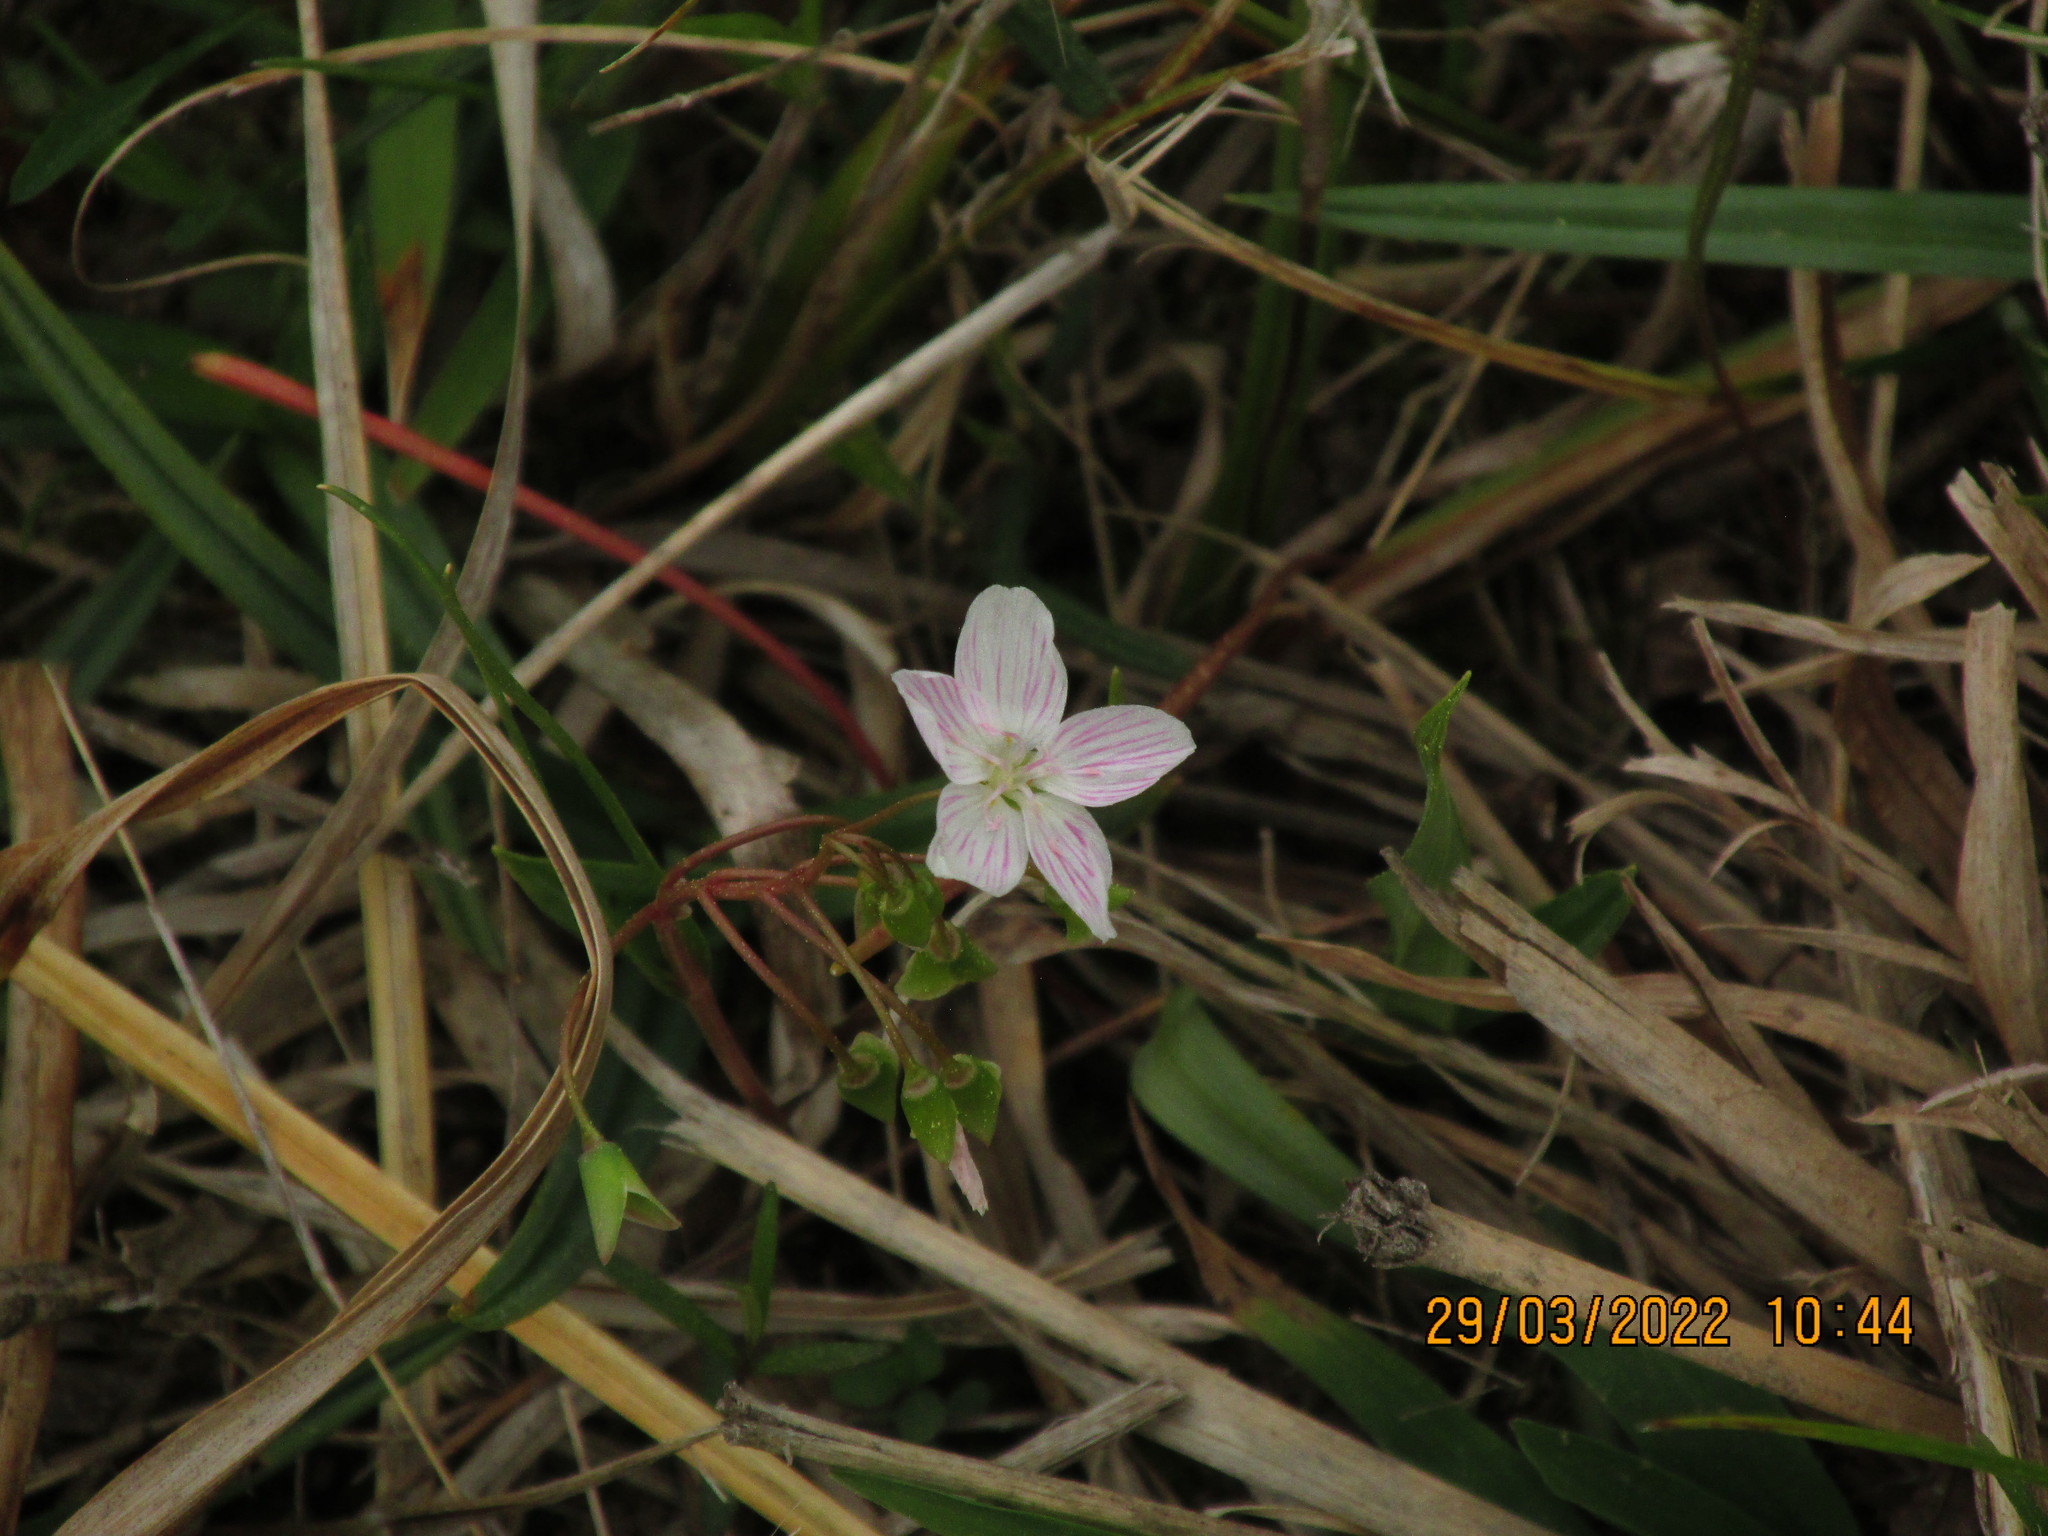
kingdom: Plantae
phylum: Tracheophyta
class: Magnoliopsida
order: Caryophyllales
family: Montiaceae
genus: Claytonia
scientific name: Claytonia virginica
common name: Virginia springbeauty
